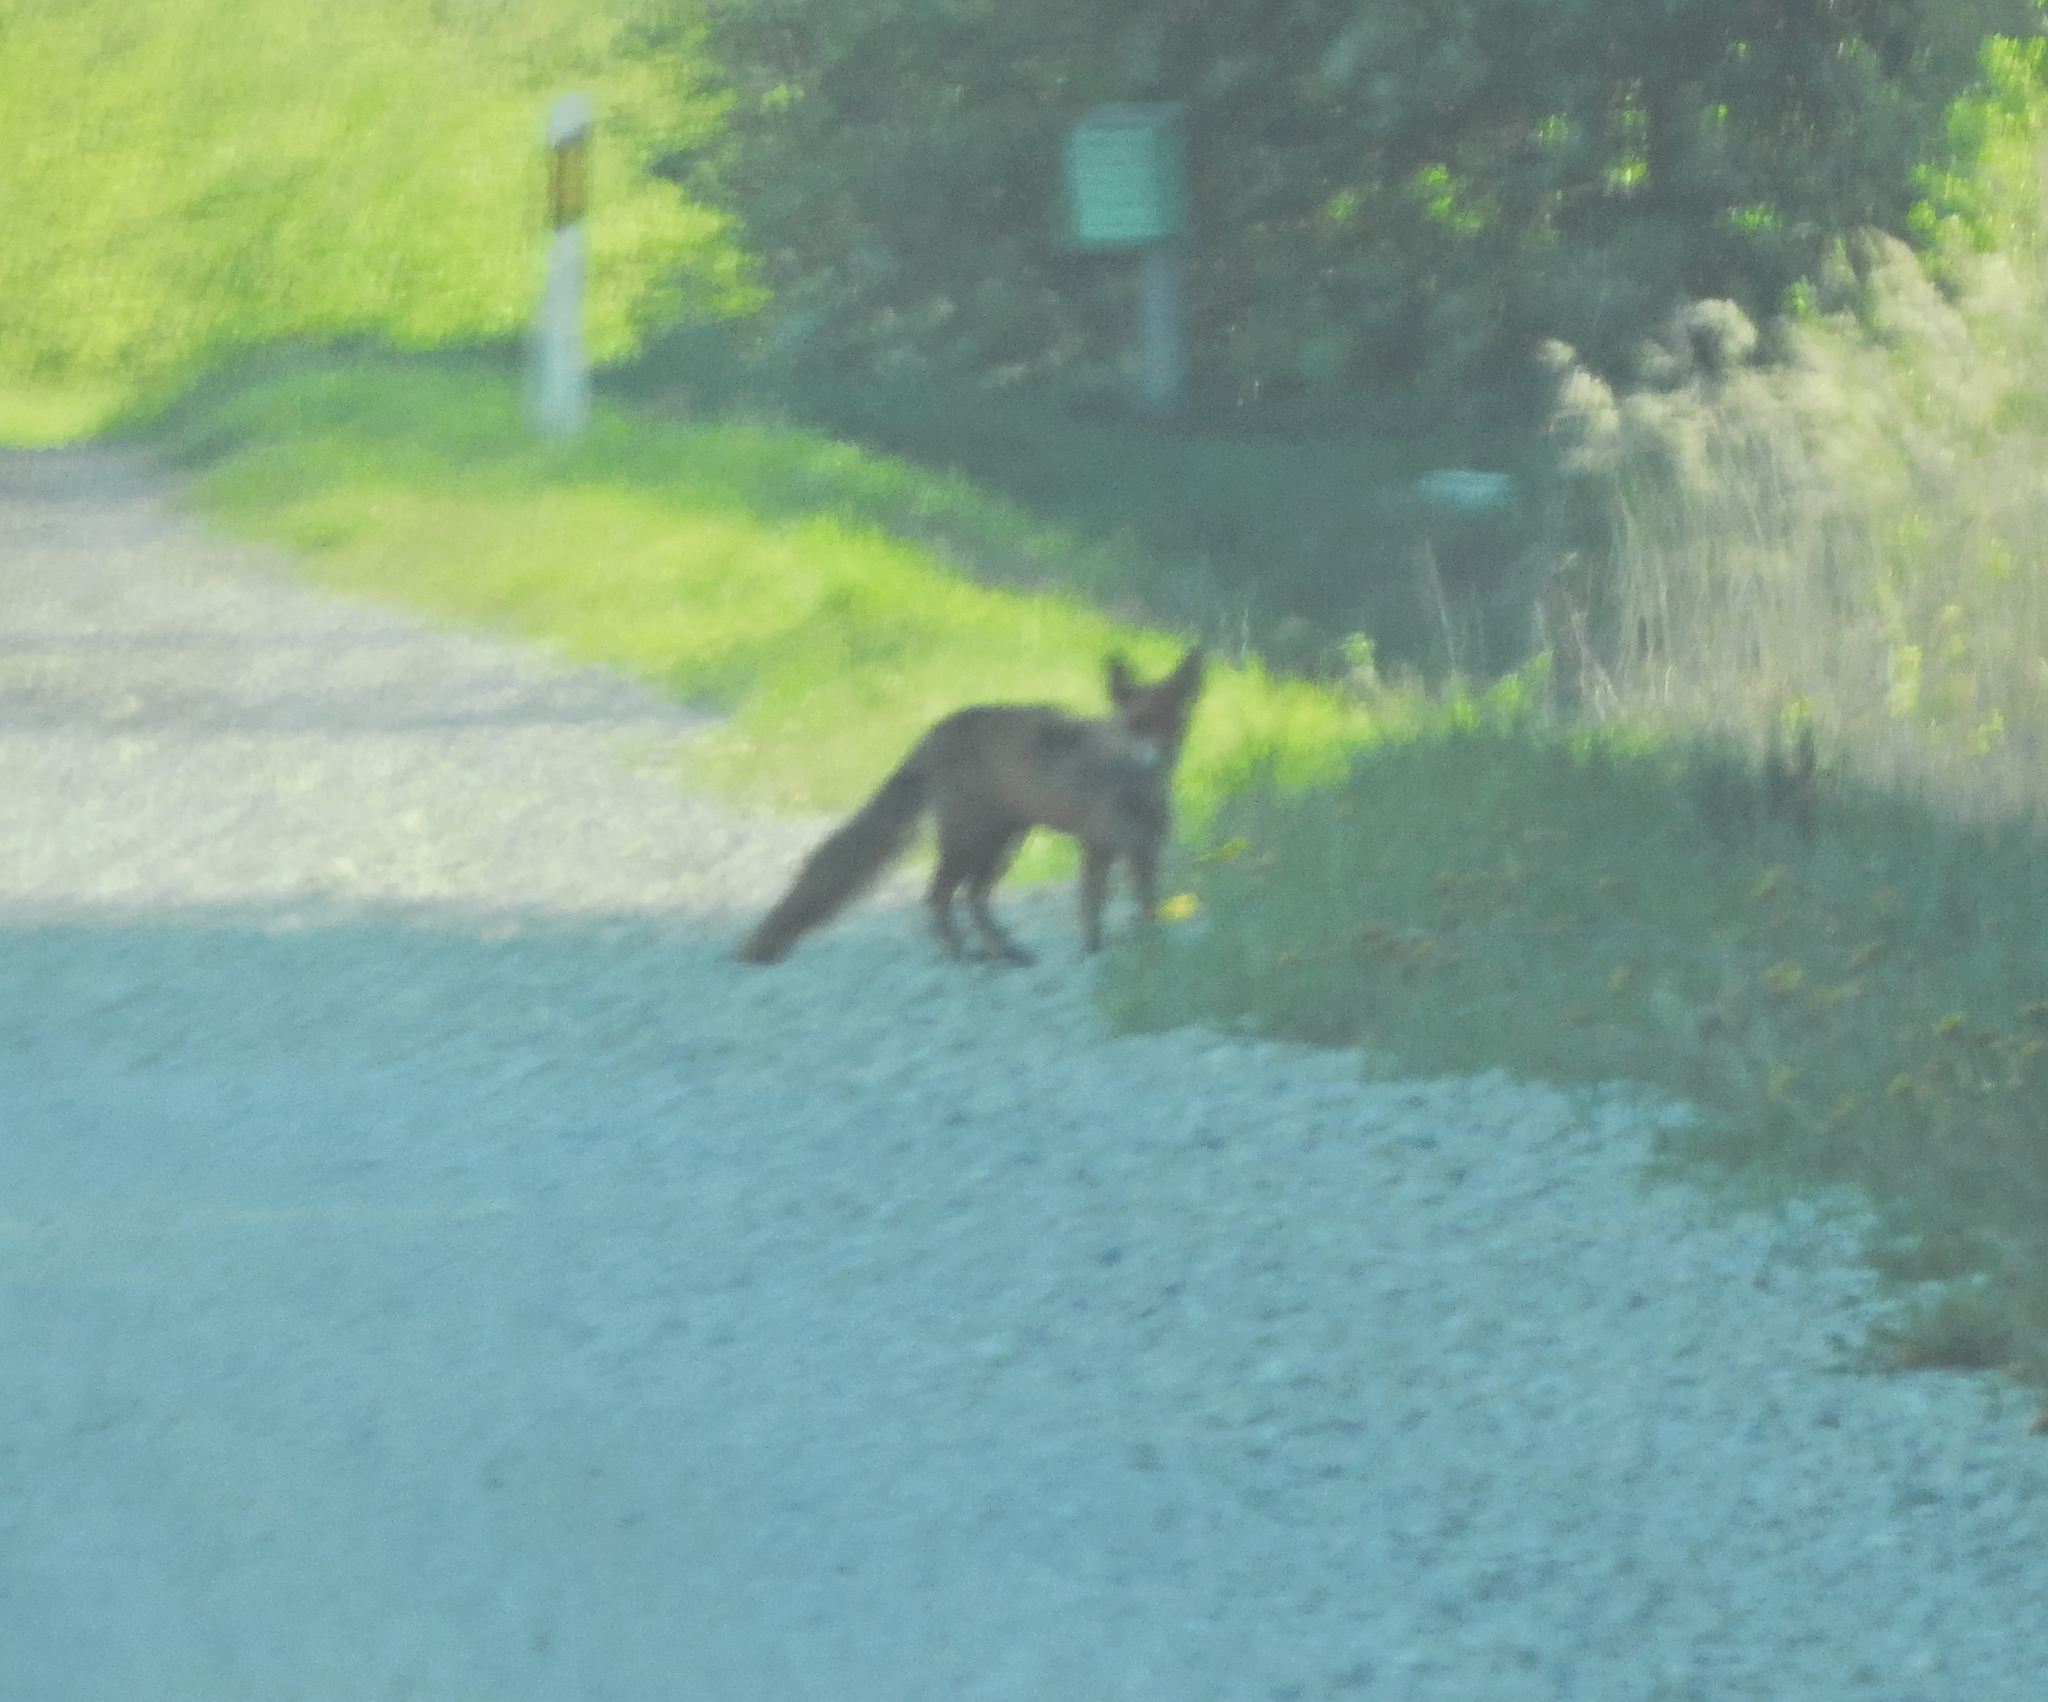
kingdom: Animalia
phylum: Chordata
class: Mammalia
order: Carnivora
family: Canidae
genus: Vulpes
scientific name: Vulpes vulpes
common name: Red fox
